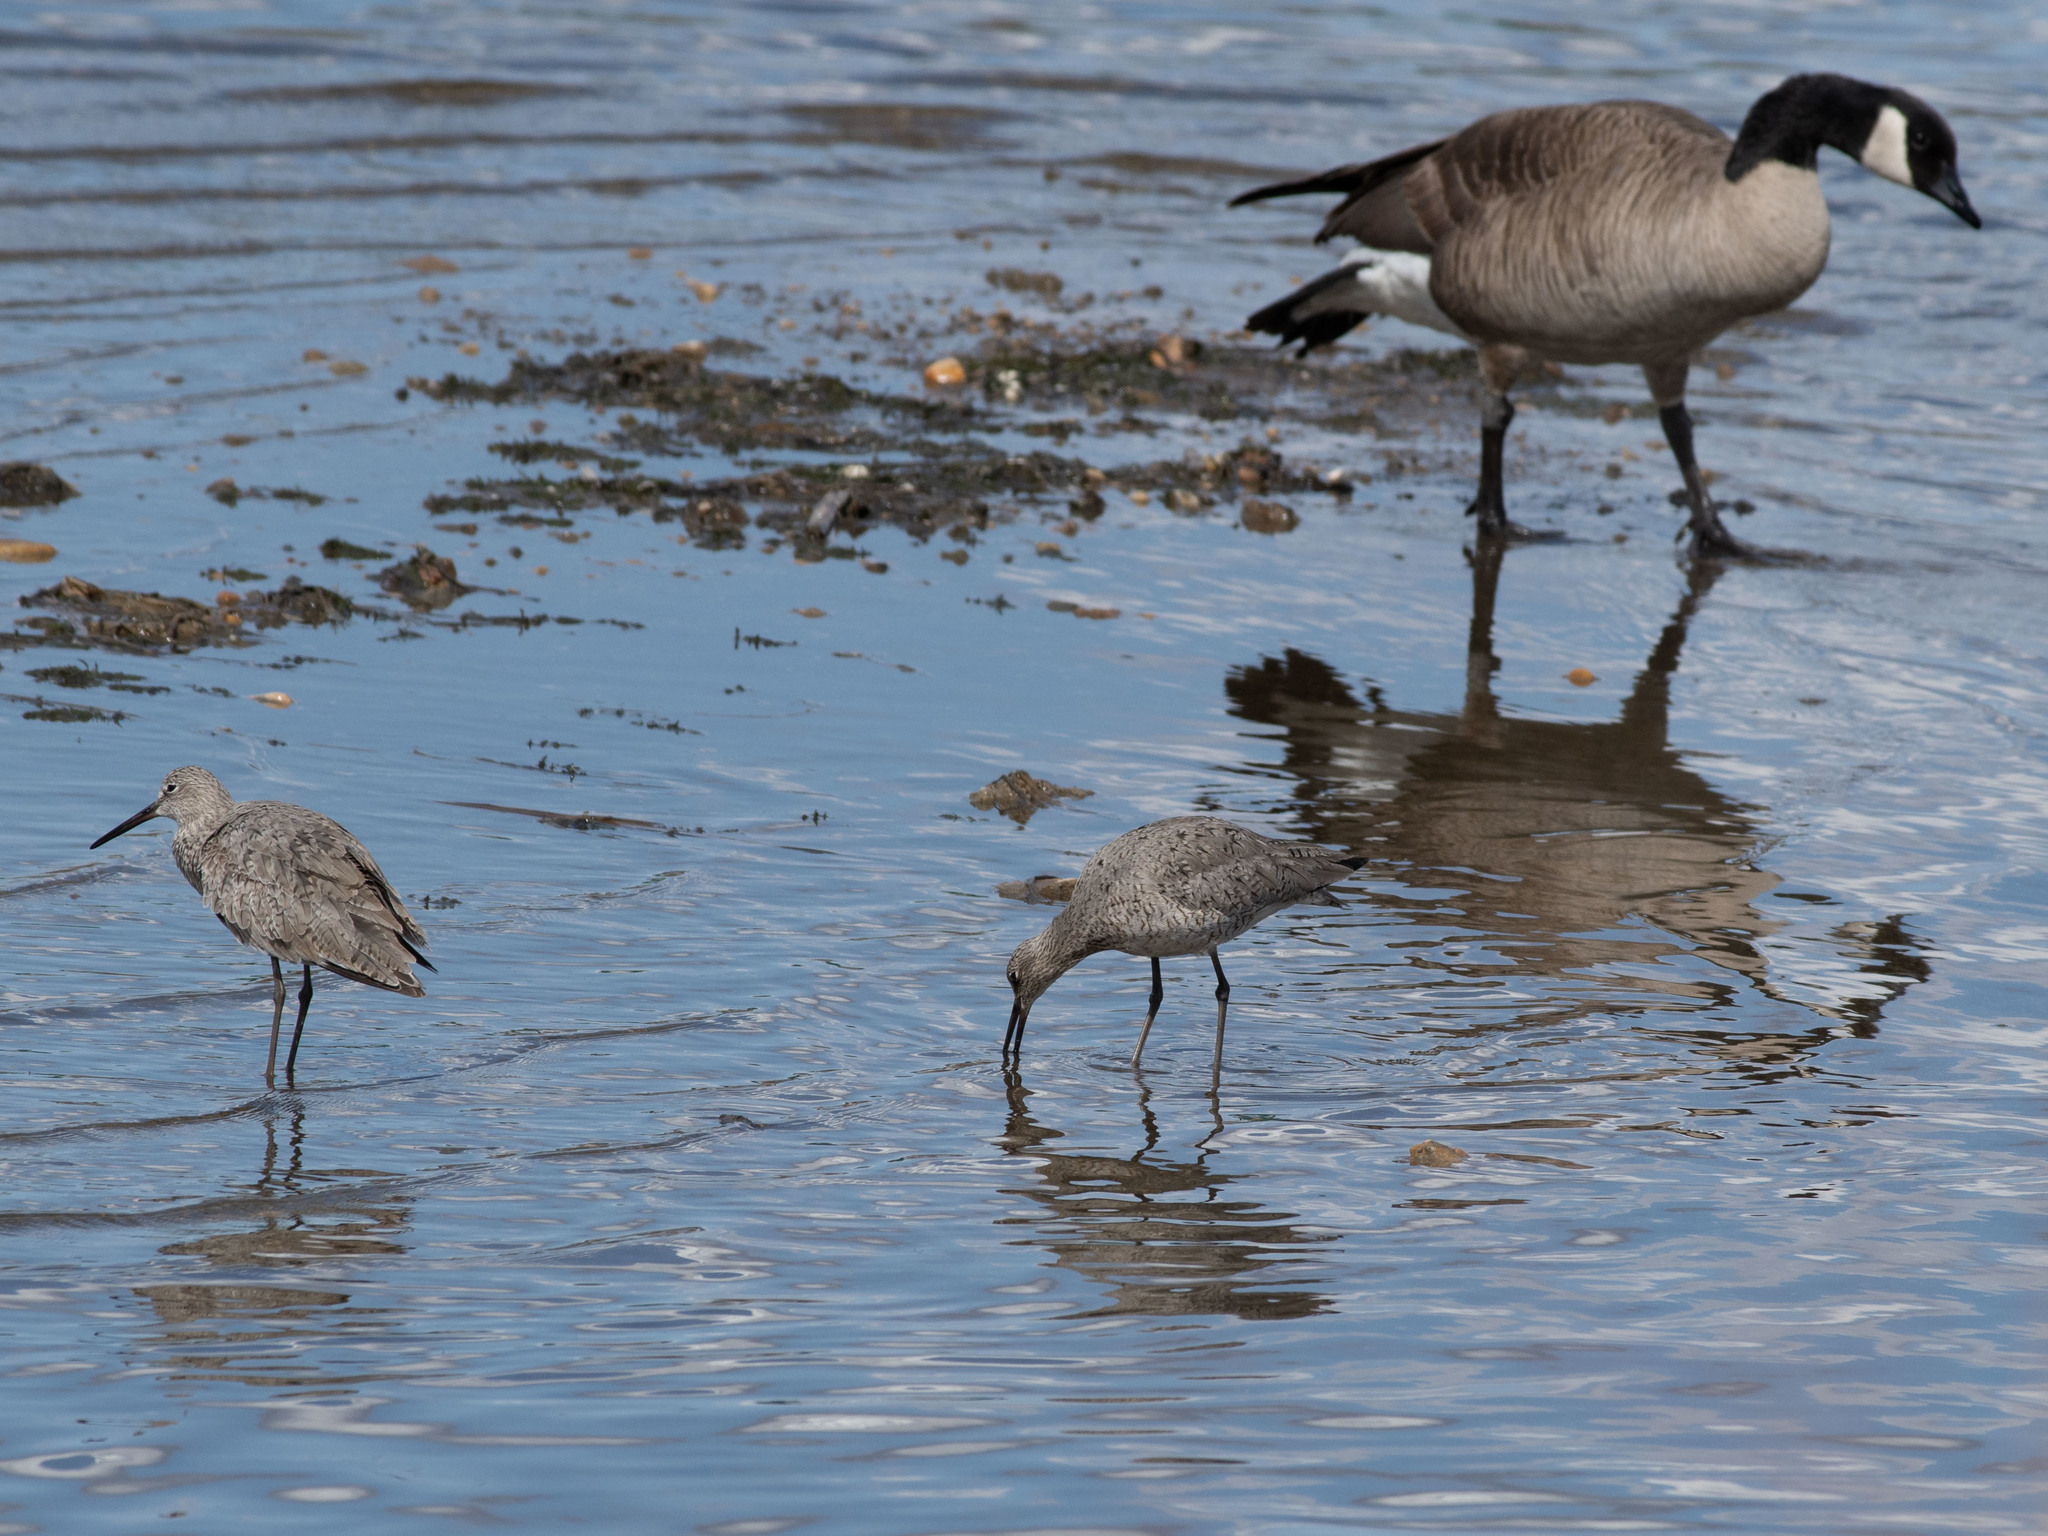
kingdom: Animalia
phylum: Chordata
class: Aves
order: Charadriiformes
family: Scolopacidae
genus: Tringa
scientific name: Tringa semipalmata
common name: Willet
